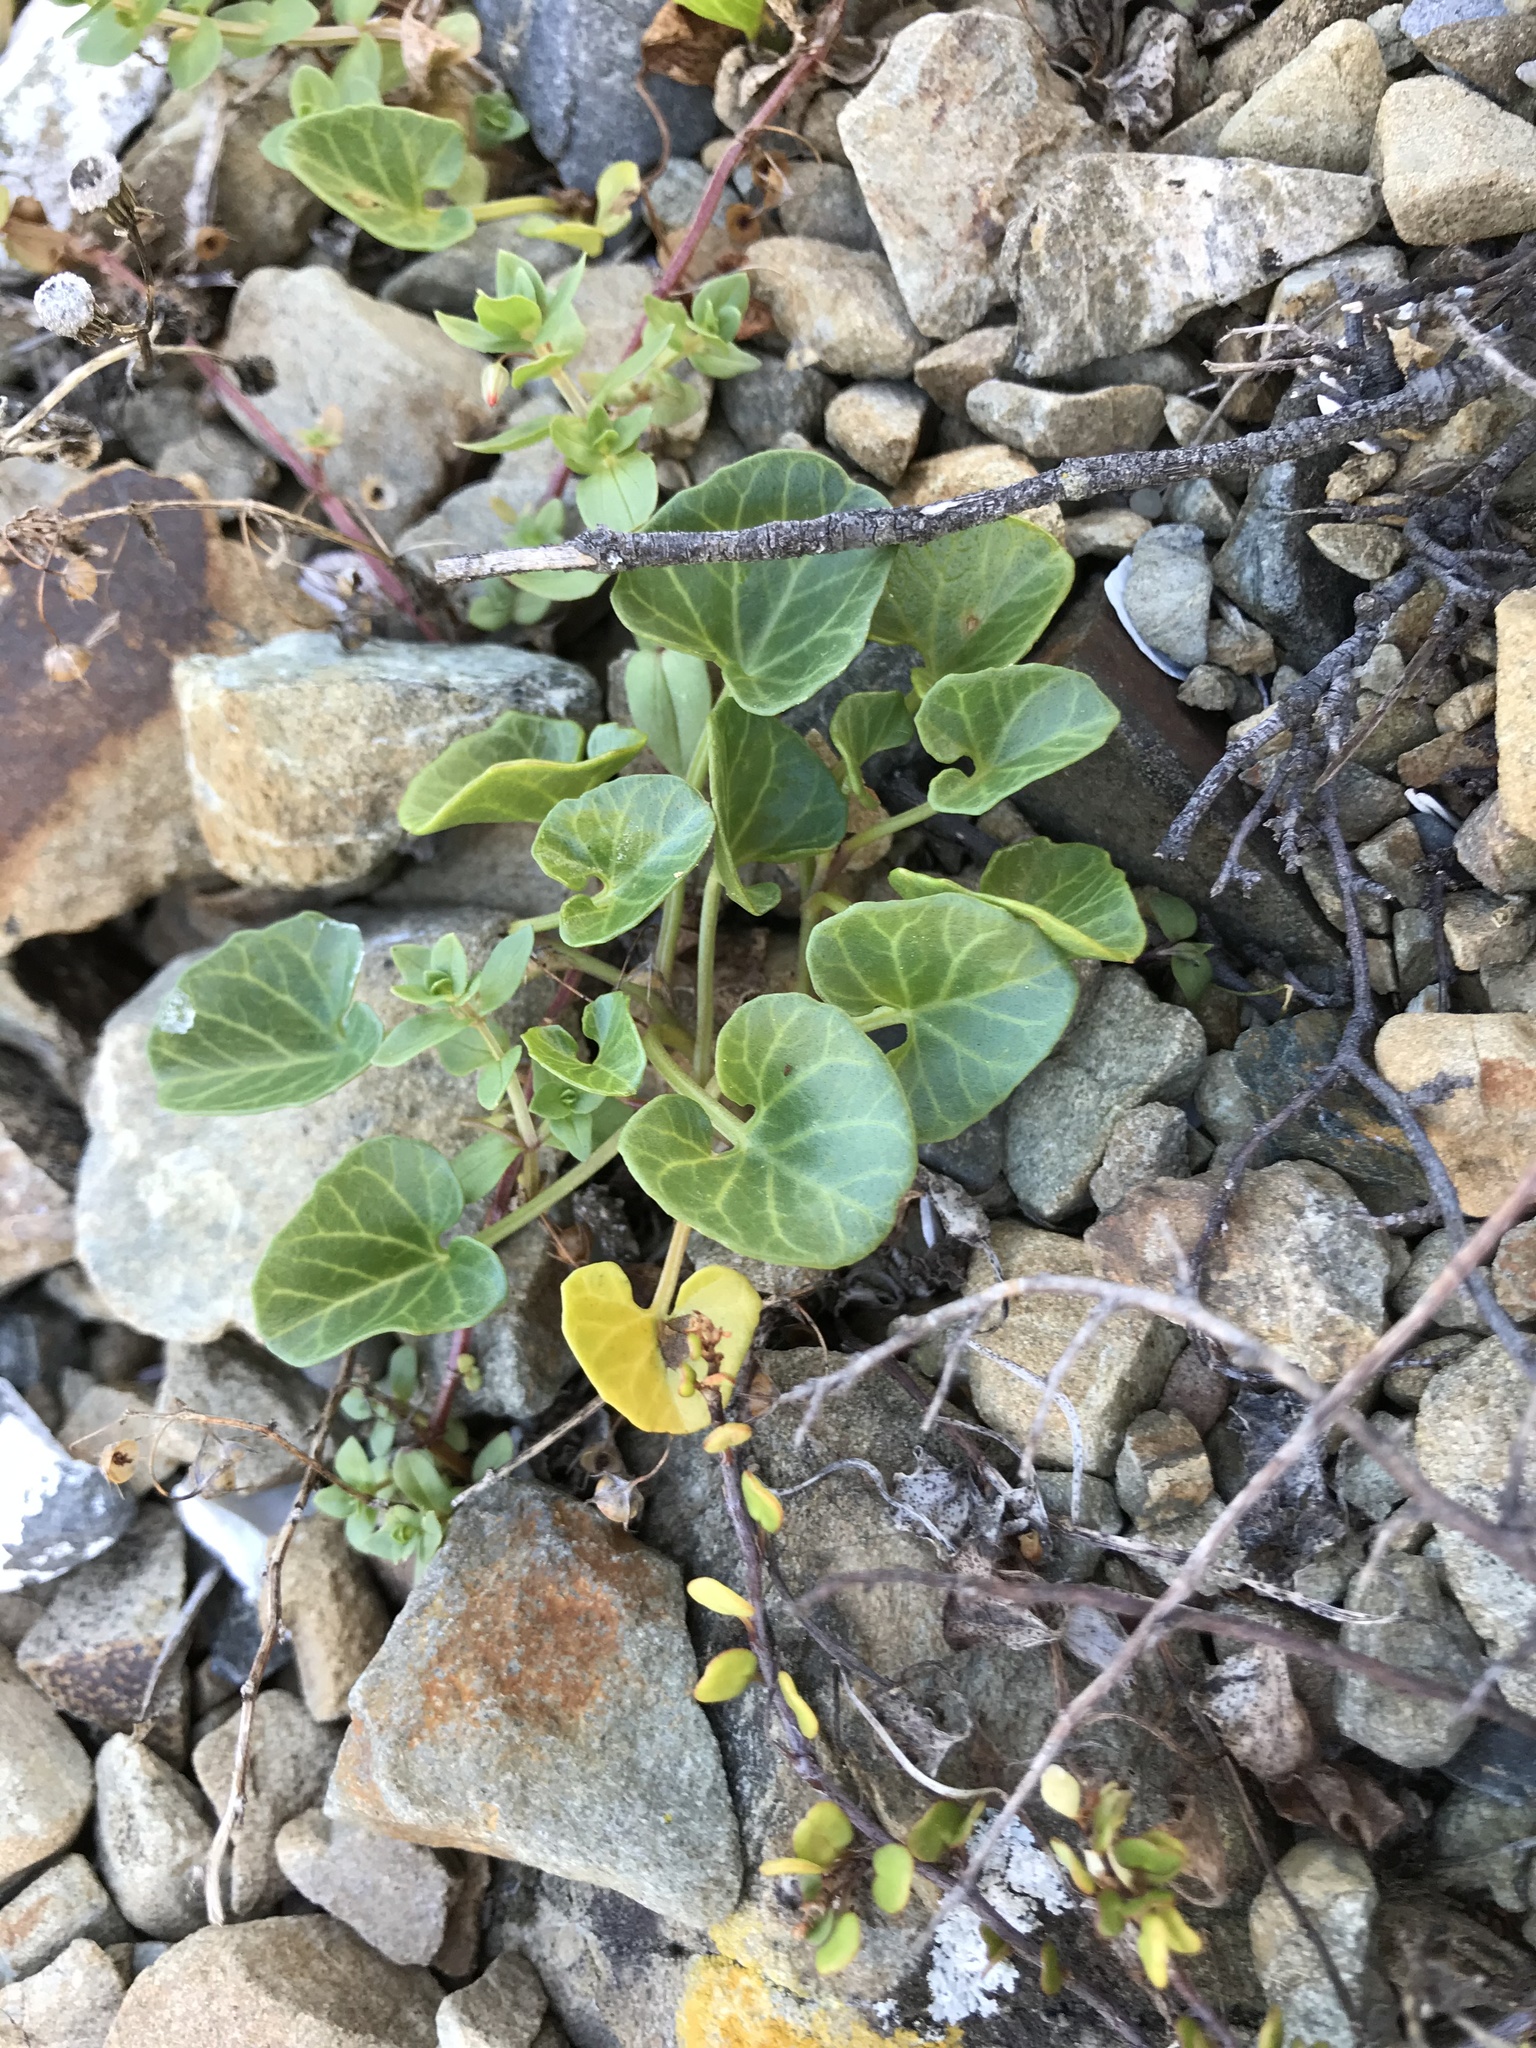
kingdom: Plantae
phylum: Tracheophyta
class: Magnoliopsida
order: Solanales
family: Convolvulaceae
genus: Calystegia
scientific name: Calystegia soldanella
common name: Sea bindweed
